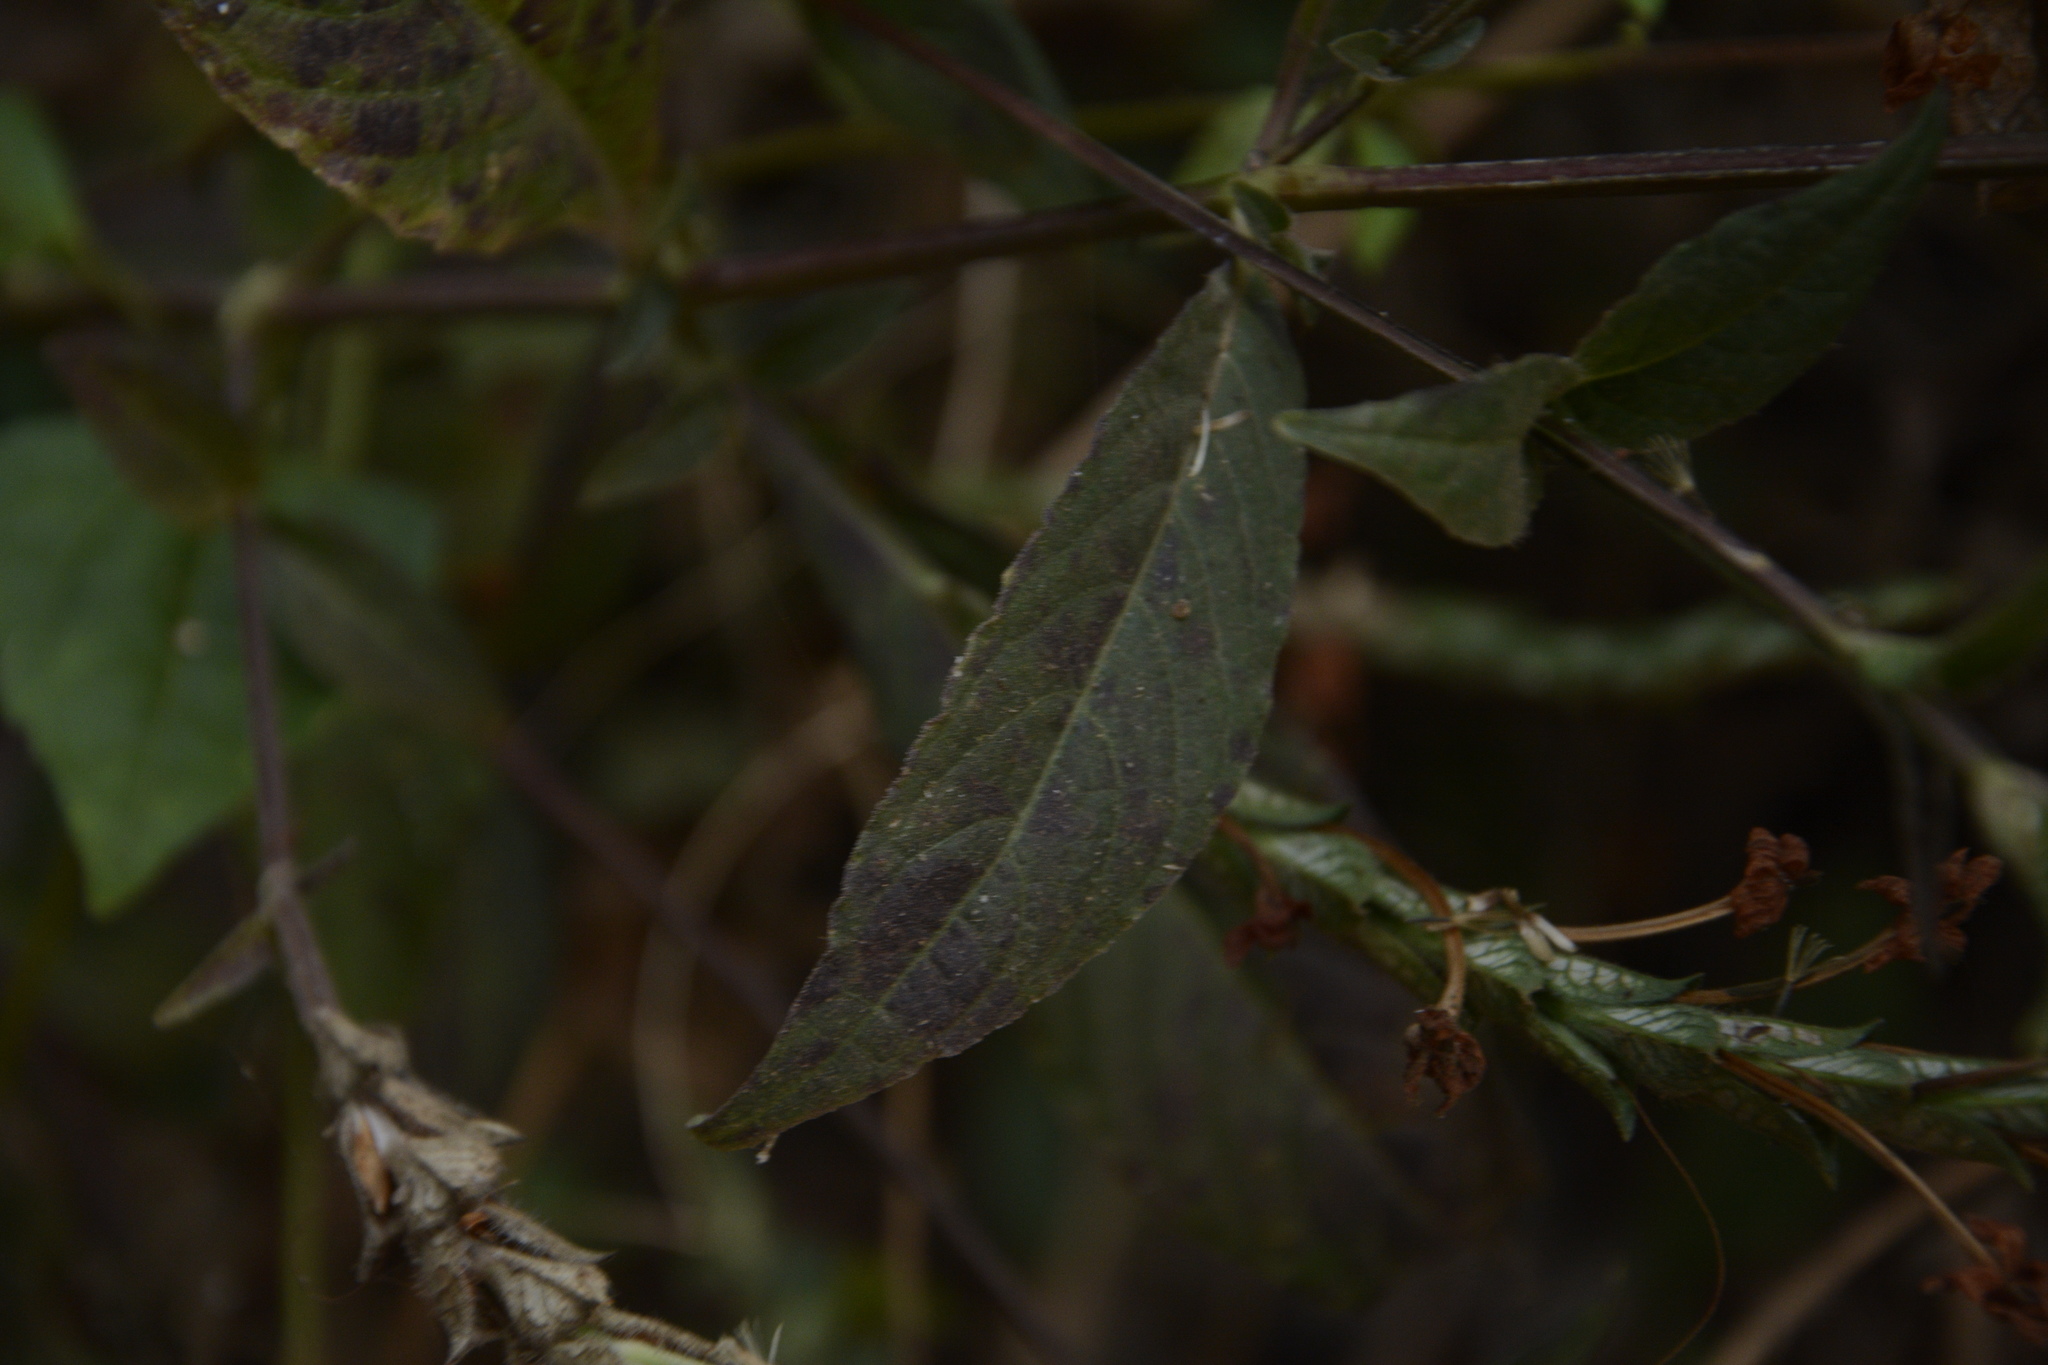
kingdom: Plantae
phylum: Tracheophyta
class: Magnoliopsida
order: Lamiales
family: Acanthaceae
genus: Eranthemum
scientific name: Eranthemum roseum
